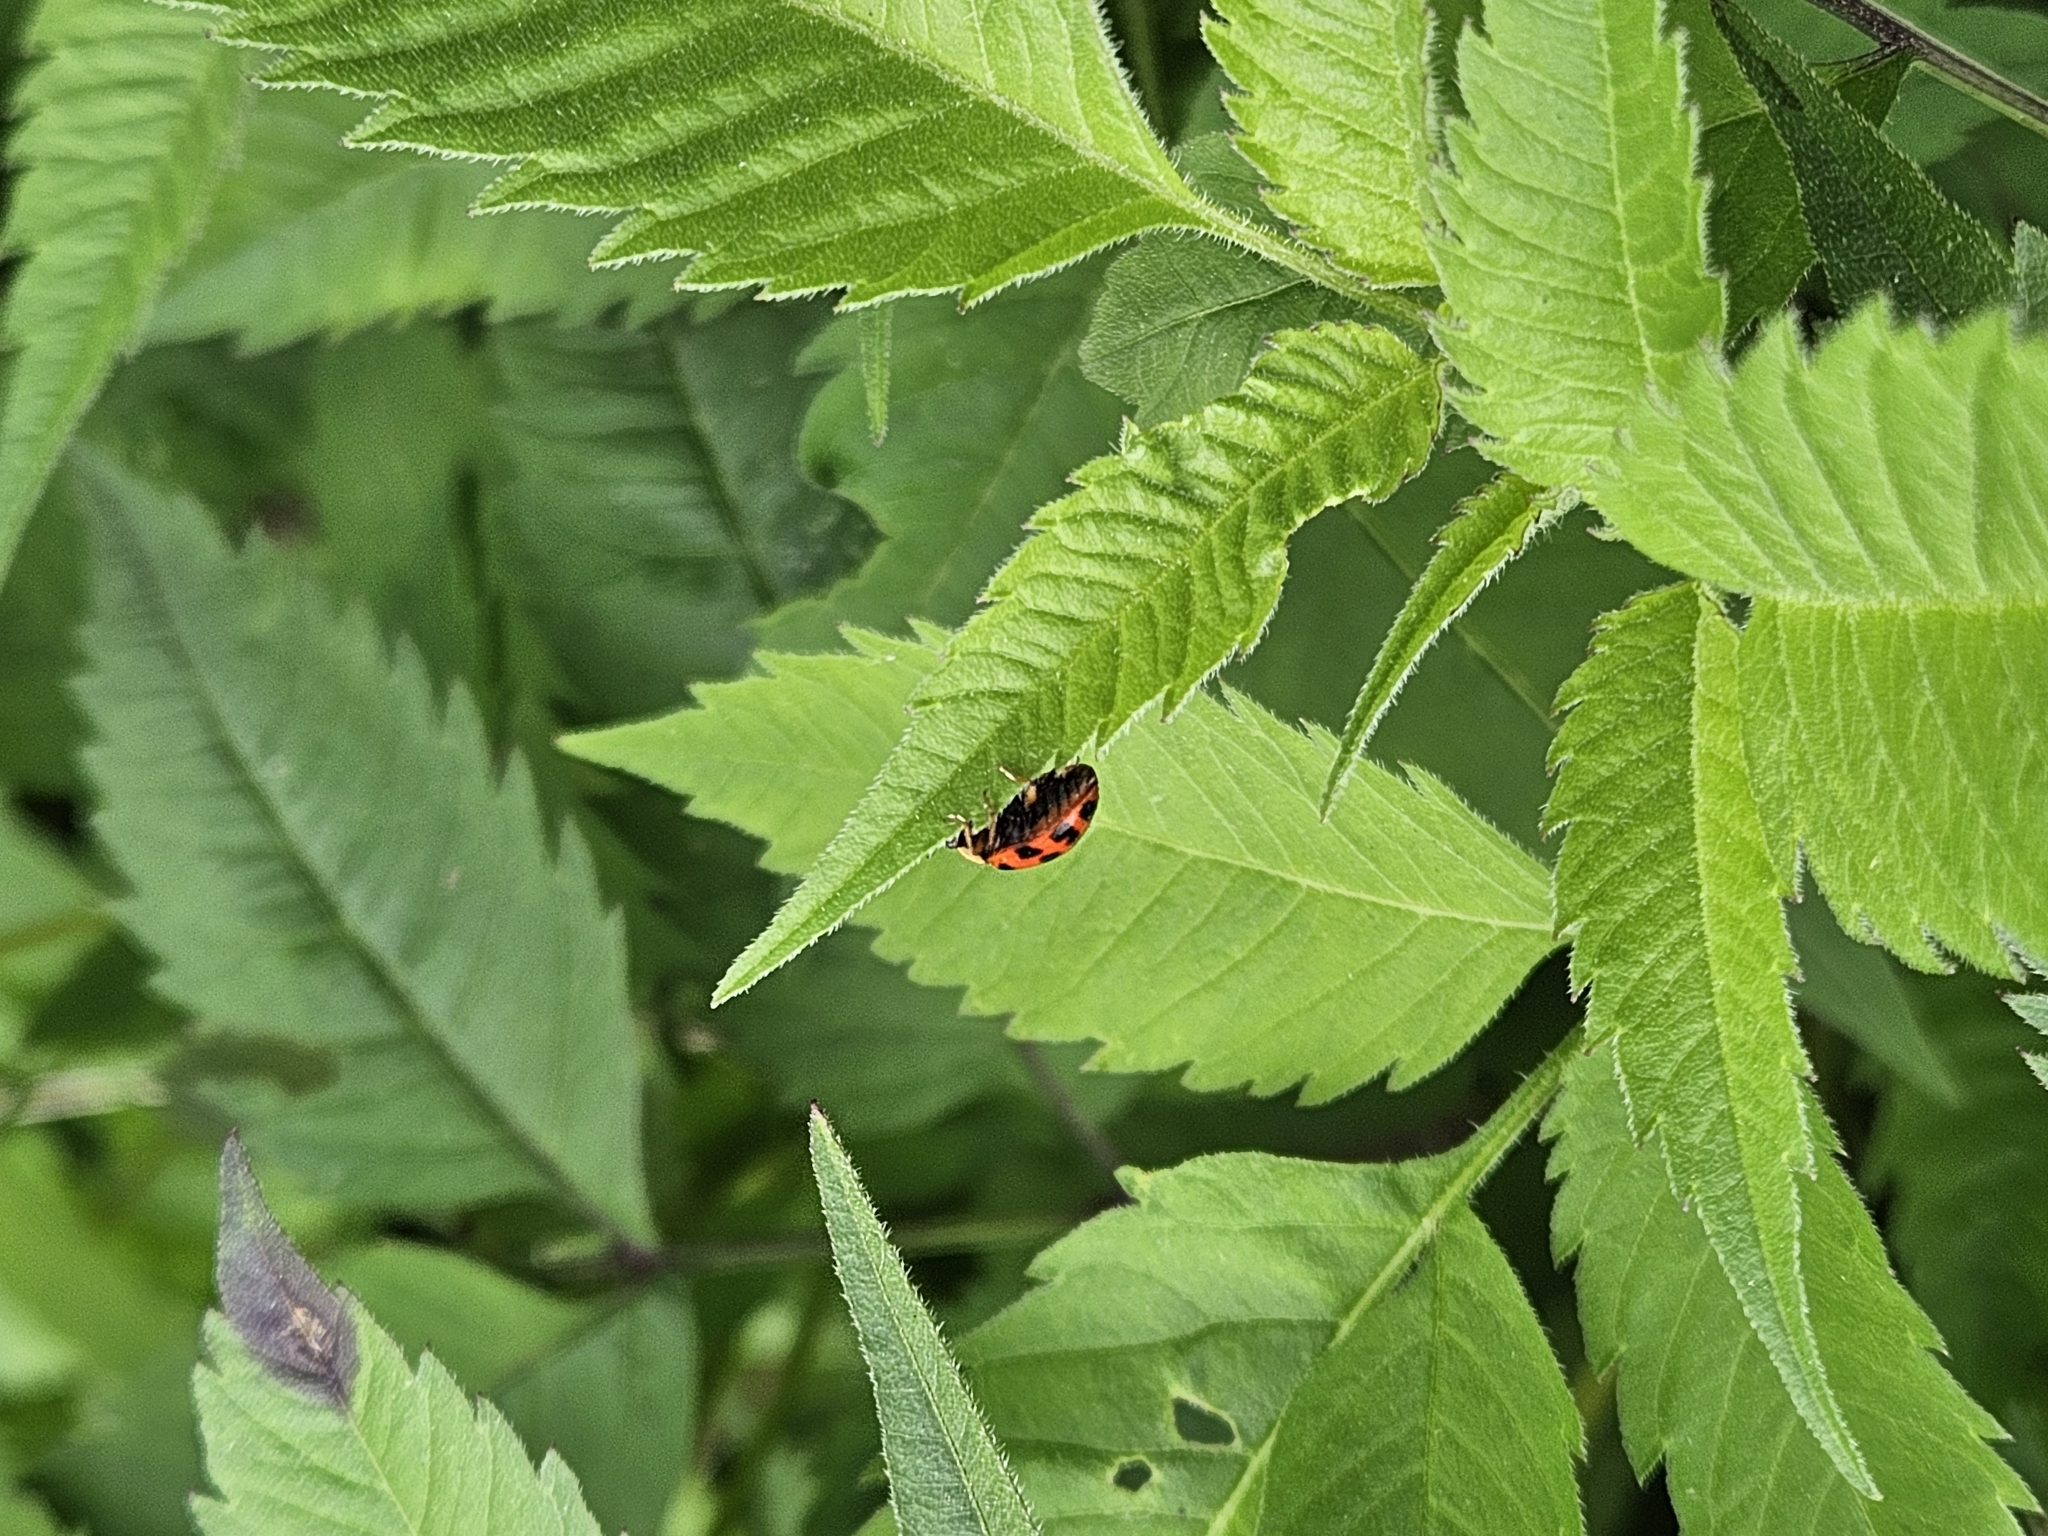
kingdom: Animalia
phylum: Arthropoda
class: Insecta
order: Coleoptera
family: Coccinellidae
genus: Harmonia
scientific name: Harmonia axyridis
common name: Harlequin ladybird
